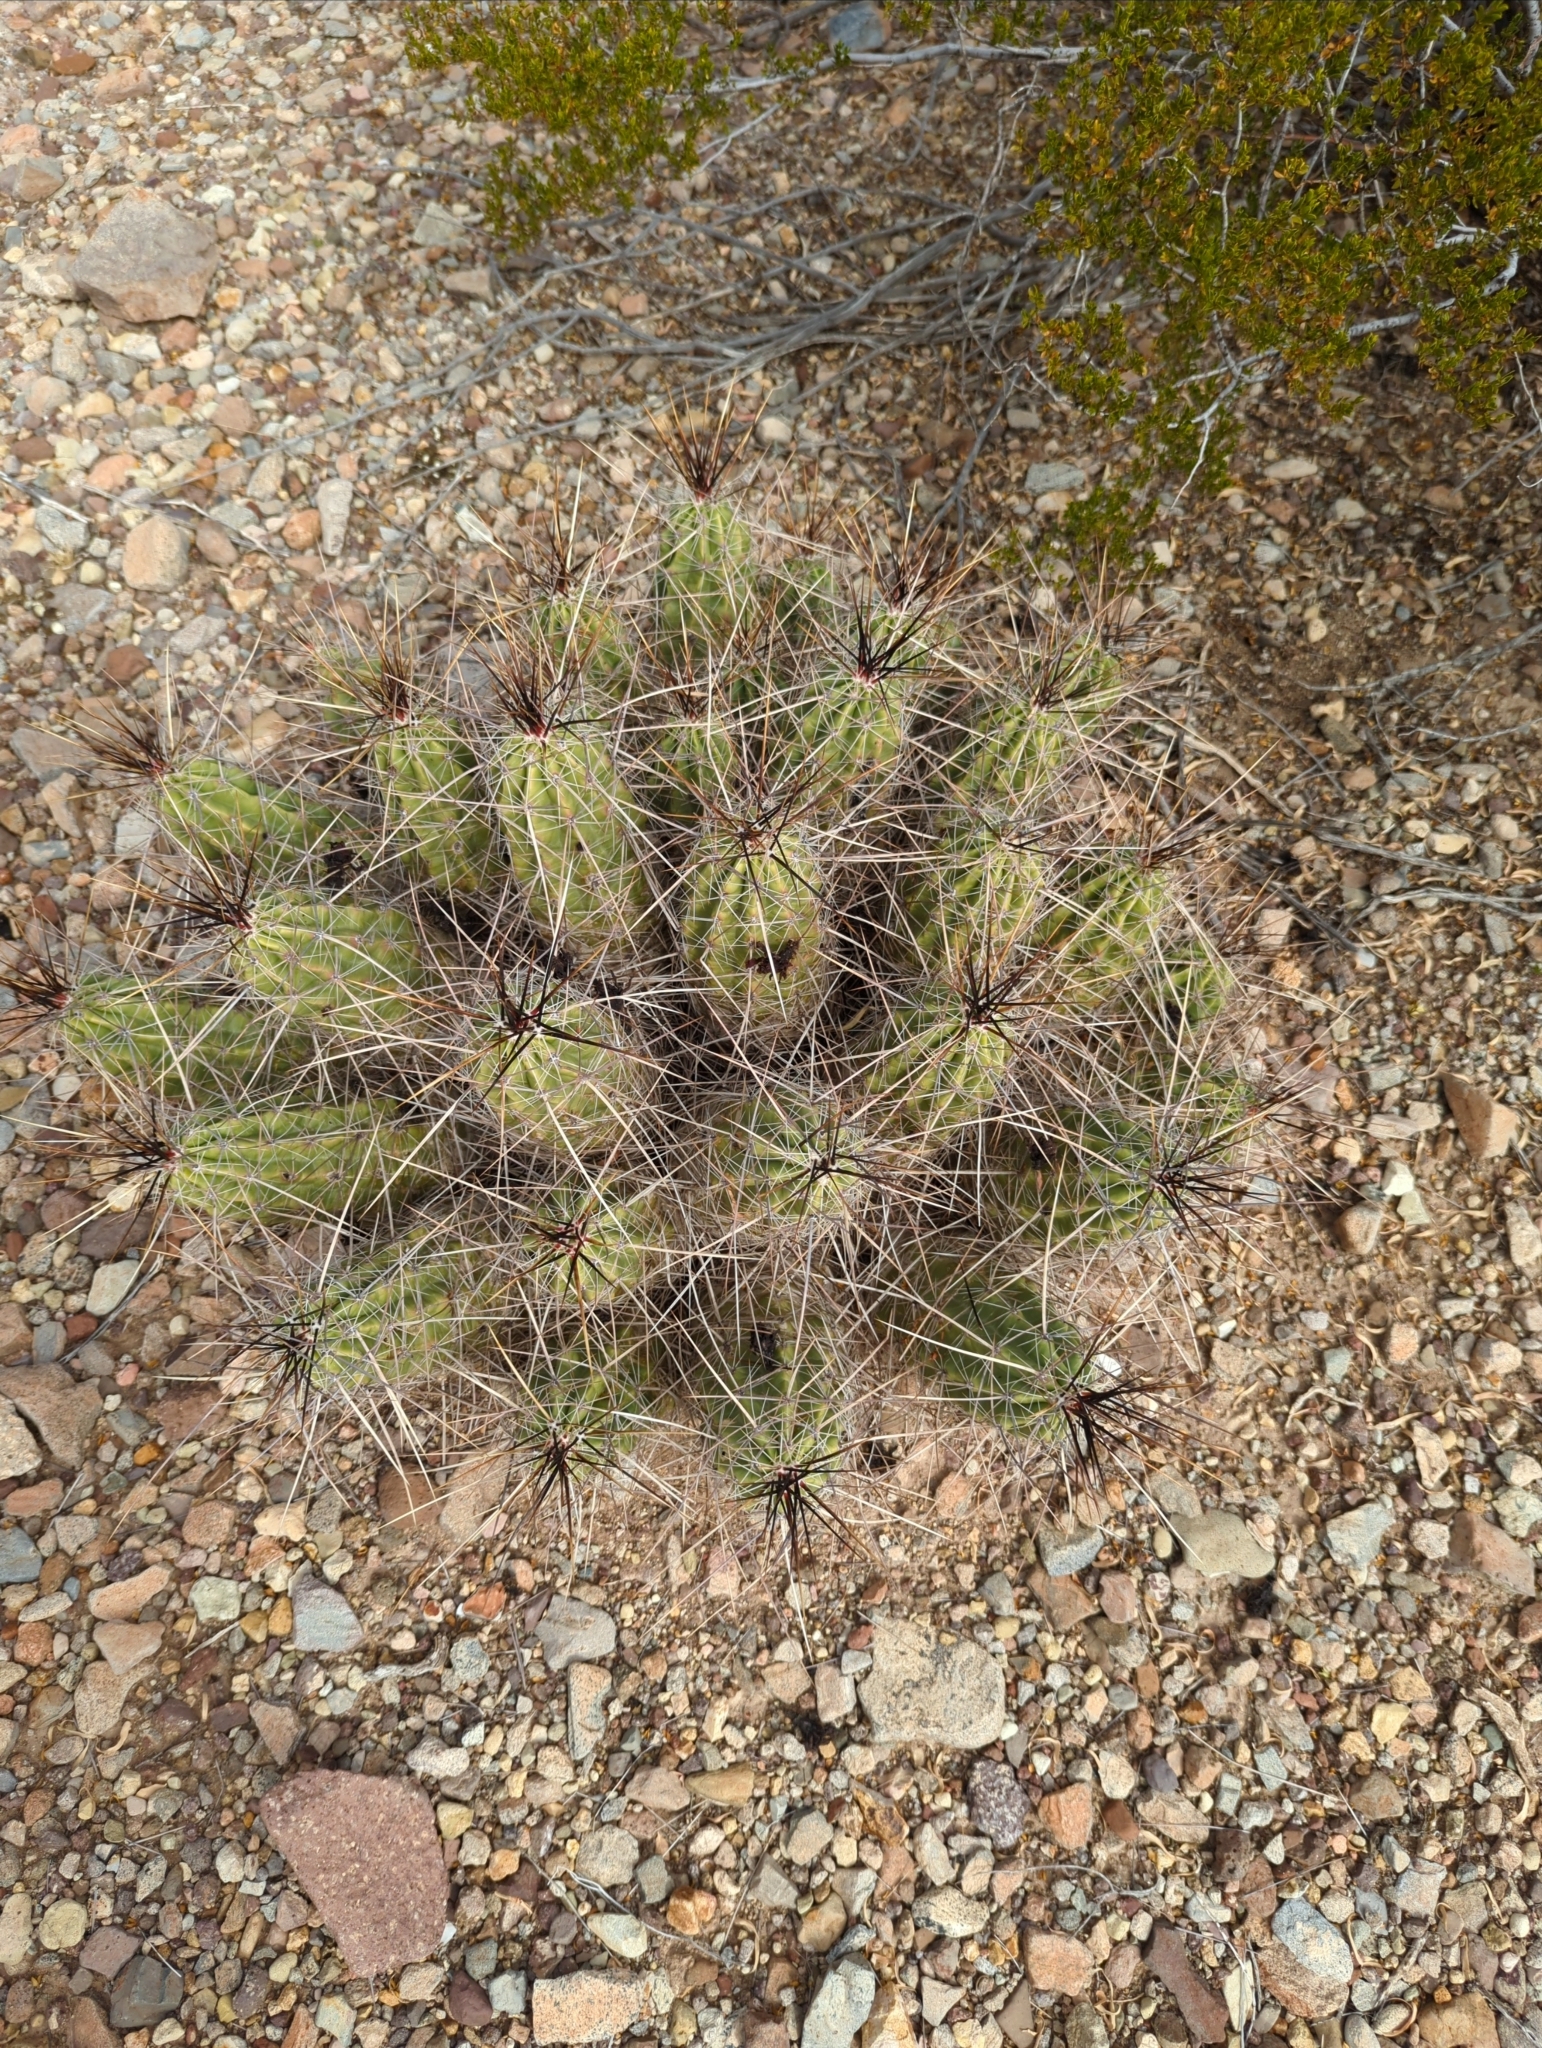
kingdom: Plantae
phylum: Tracheophyta
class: Magnoliopsida
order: Caryophyllales
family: Cactaceae
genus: Echinocereus
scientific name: Echinocereus enneacanthus
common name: Pitaya
